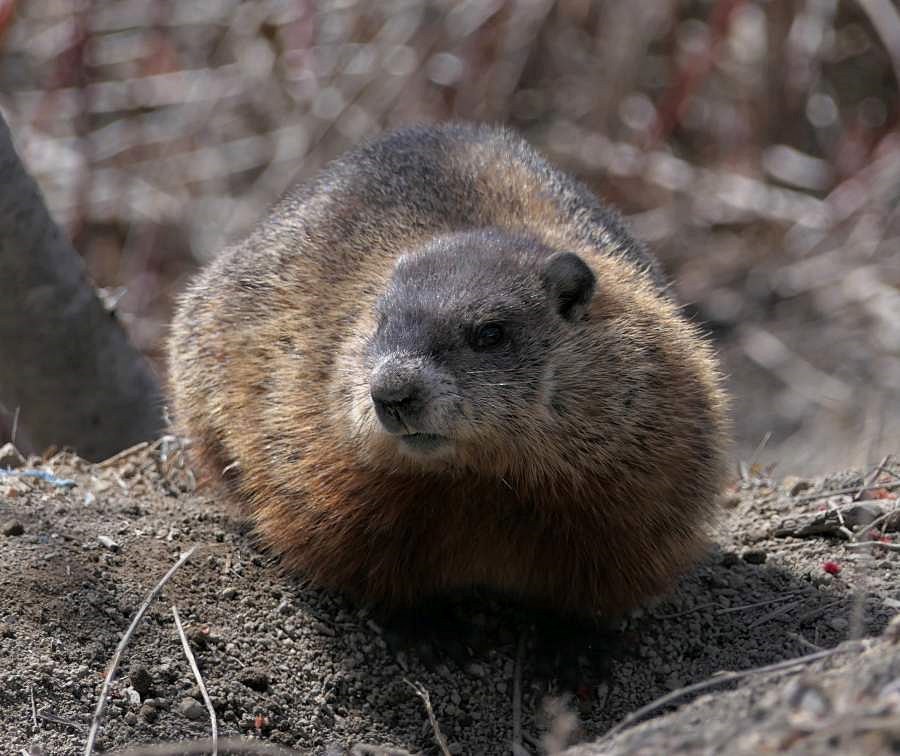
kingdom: Animalia
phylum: Chordata
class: Mammalia
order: Rodentia
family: Sciuridae
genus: Marmota
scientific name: Marmota monax
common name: Groundhog
